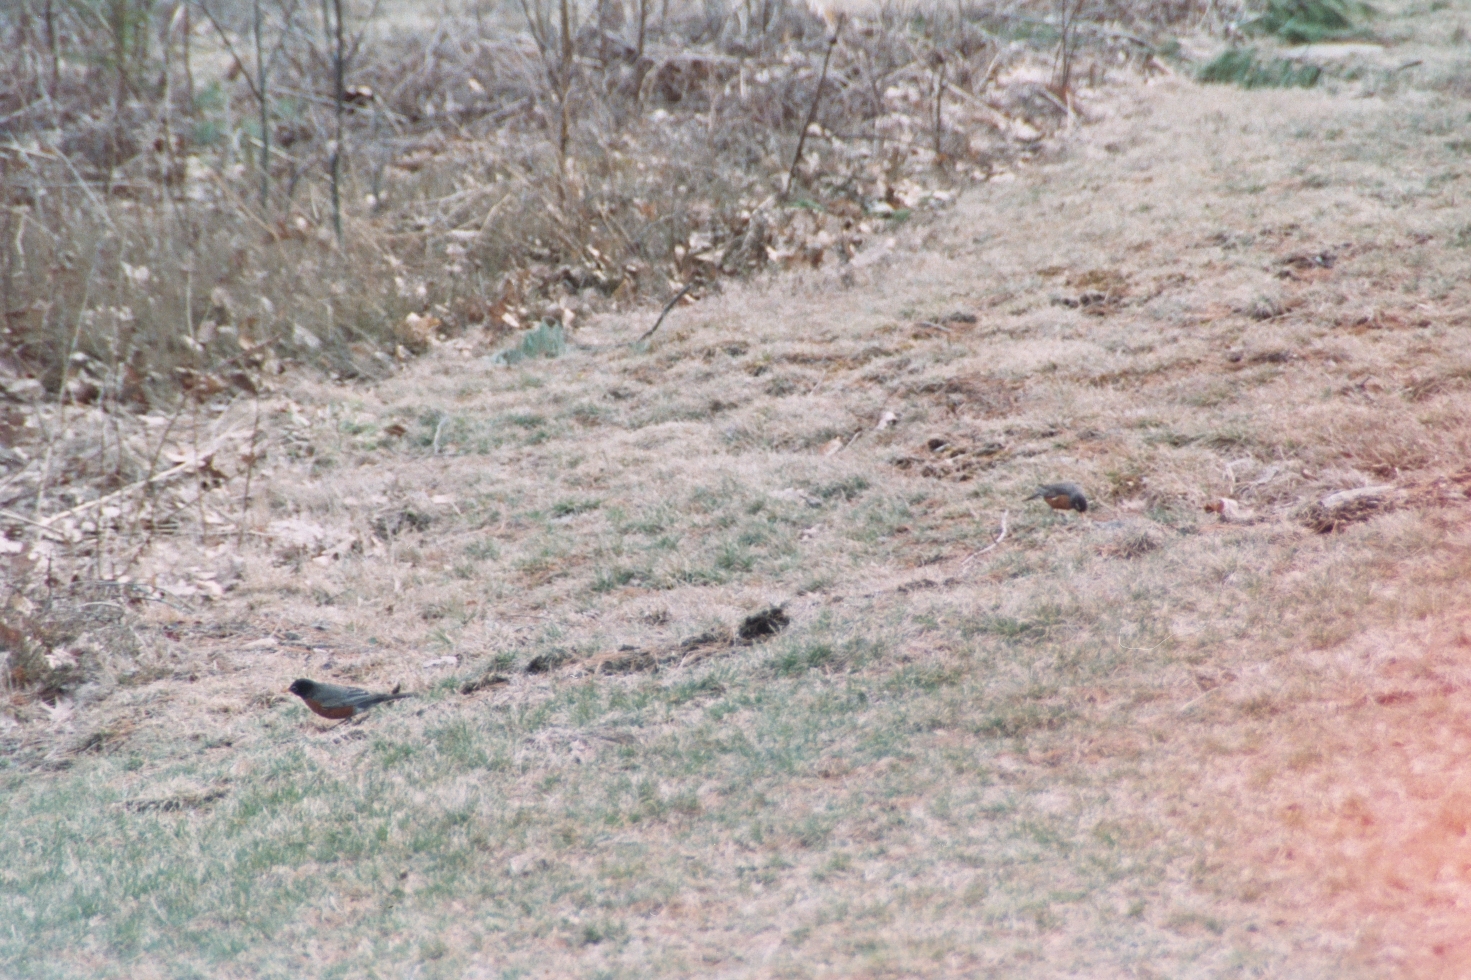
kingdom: Animalia
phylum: Chordata
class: Aves
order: Passeriformes
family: Turdidae
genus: Turdus
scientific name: Turdus migratorius
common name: American robin
